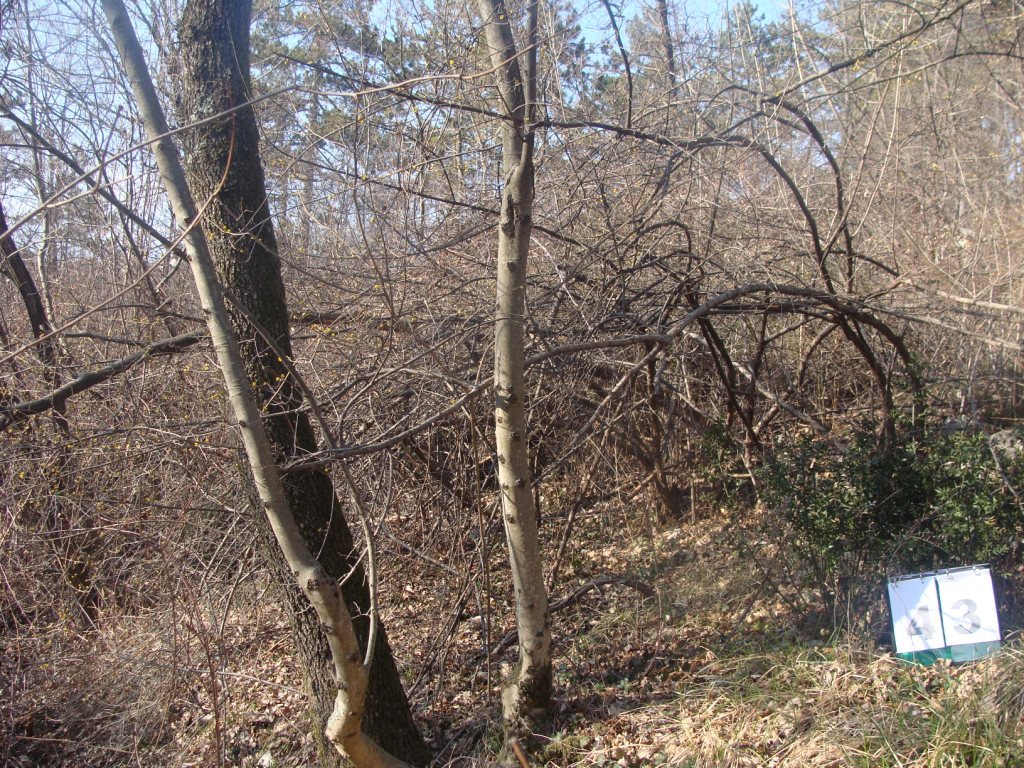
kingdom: Plantae
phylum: Tracheophyta
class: Magnoliopsida
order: Cornales
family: Cornaceae
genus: Cornus
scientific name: Cornus mas
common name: Cornelian-cherry
